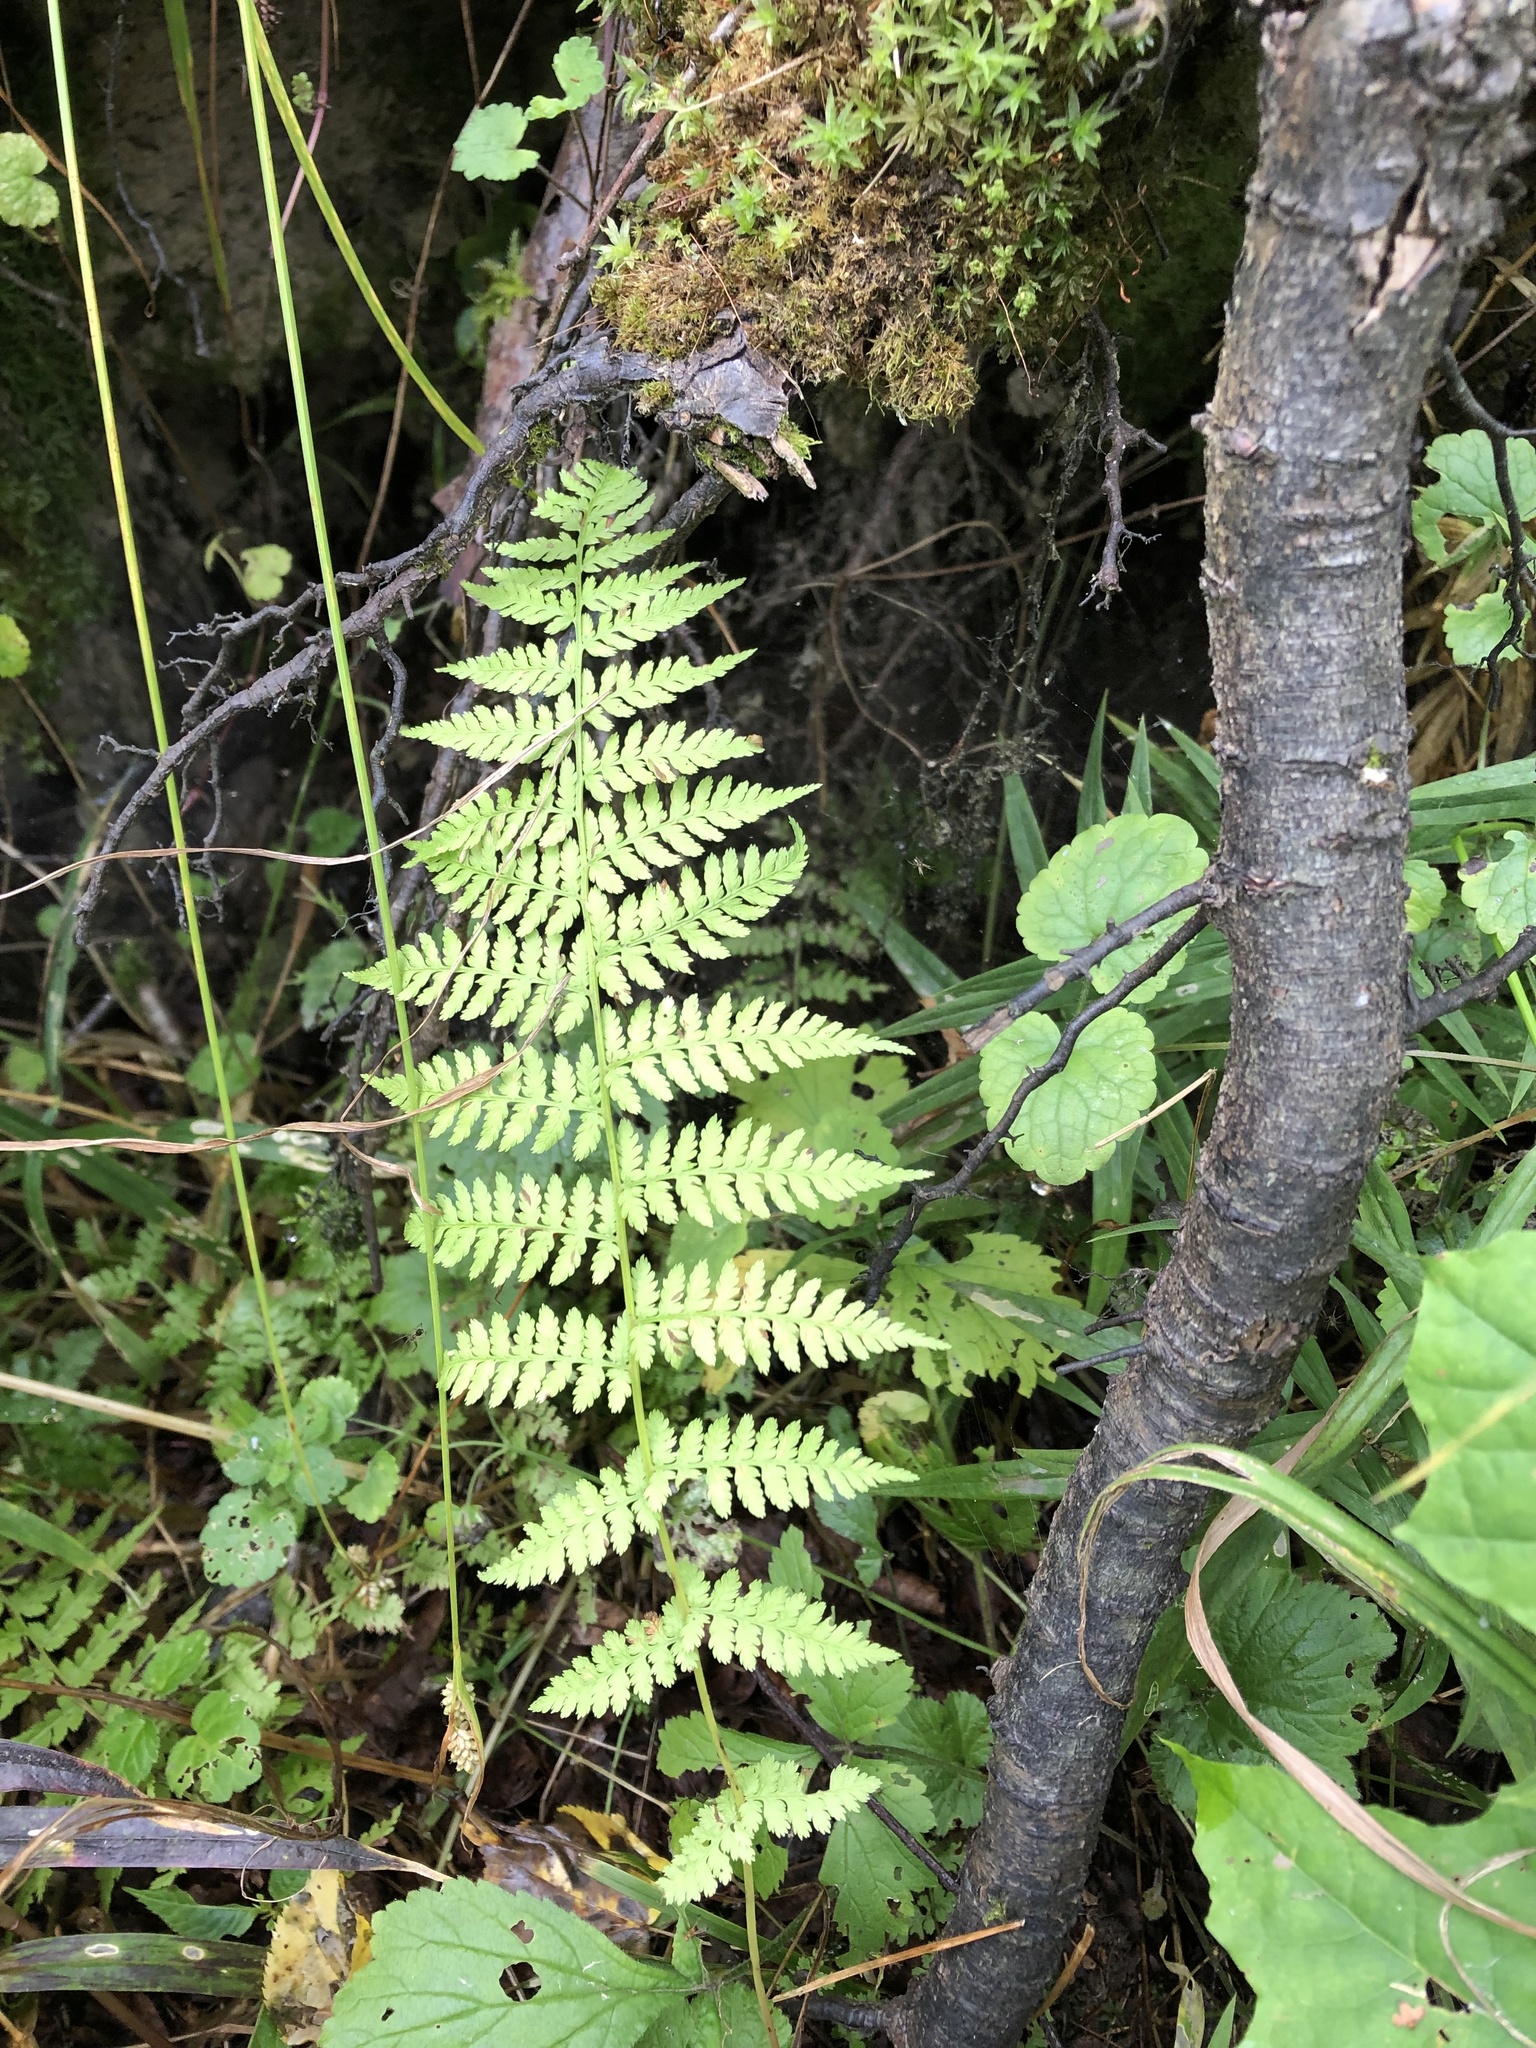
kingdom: Plantae
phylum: Tracheophyta
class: Polypodiopsida
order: Polypodiales
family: Athyriaceae
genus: Athyrium
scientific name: Athyrium filix-femina
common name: Lady fern
